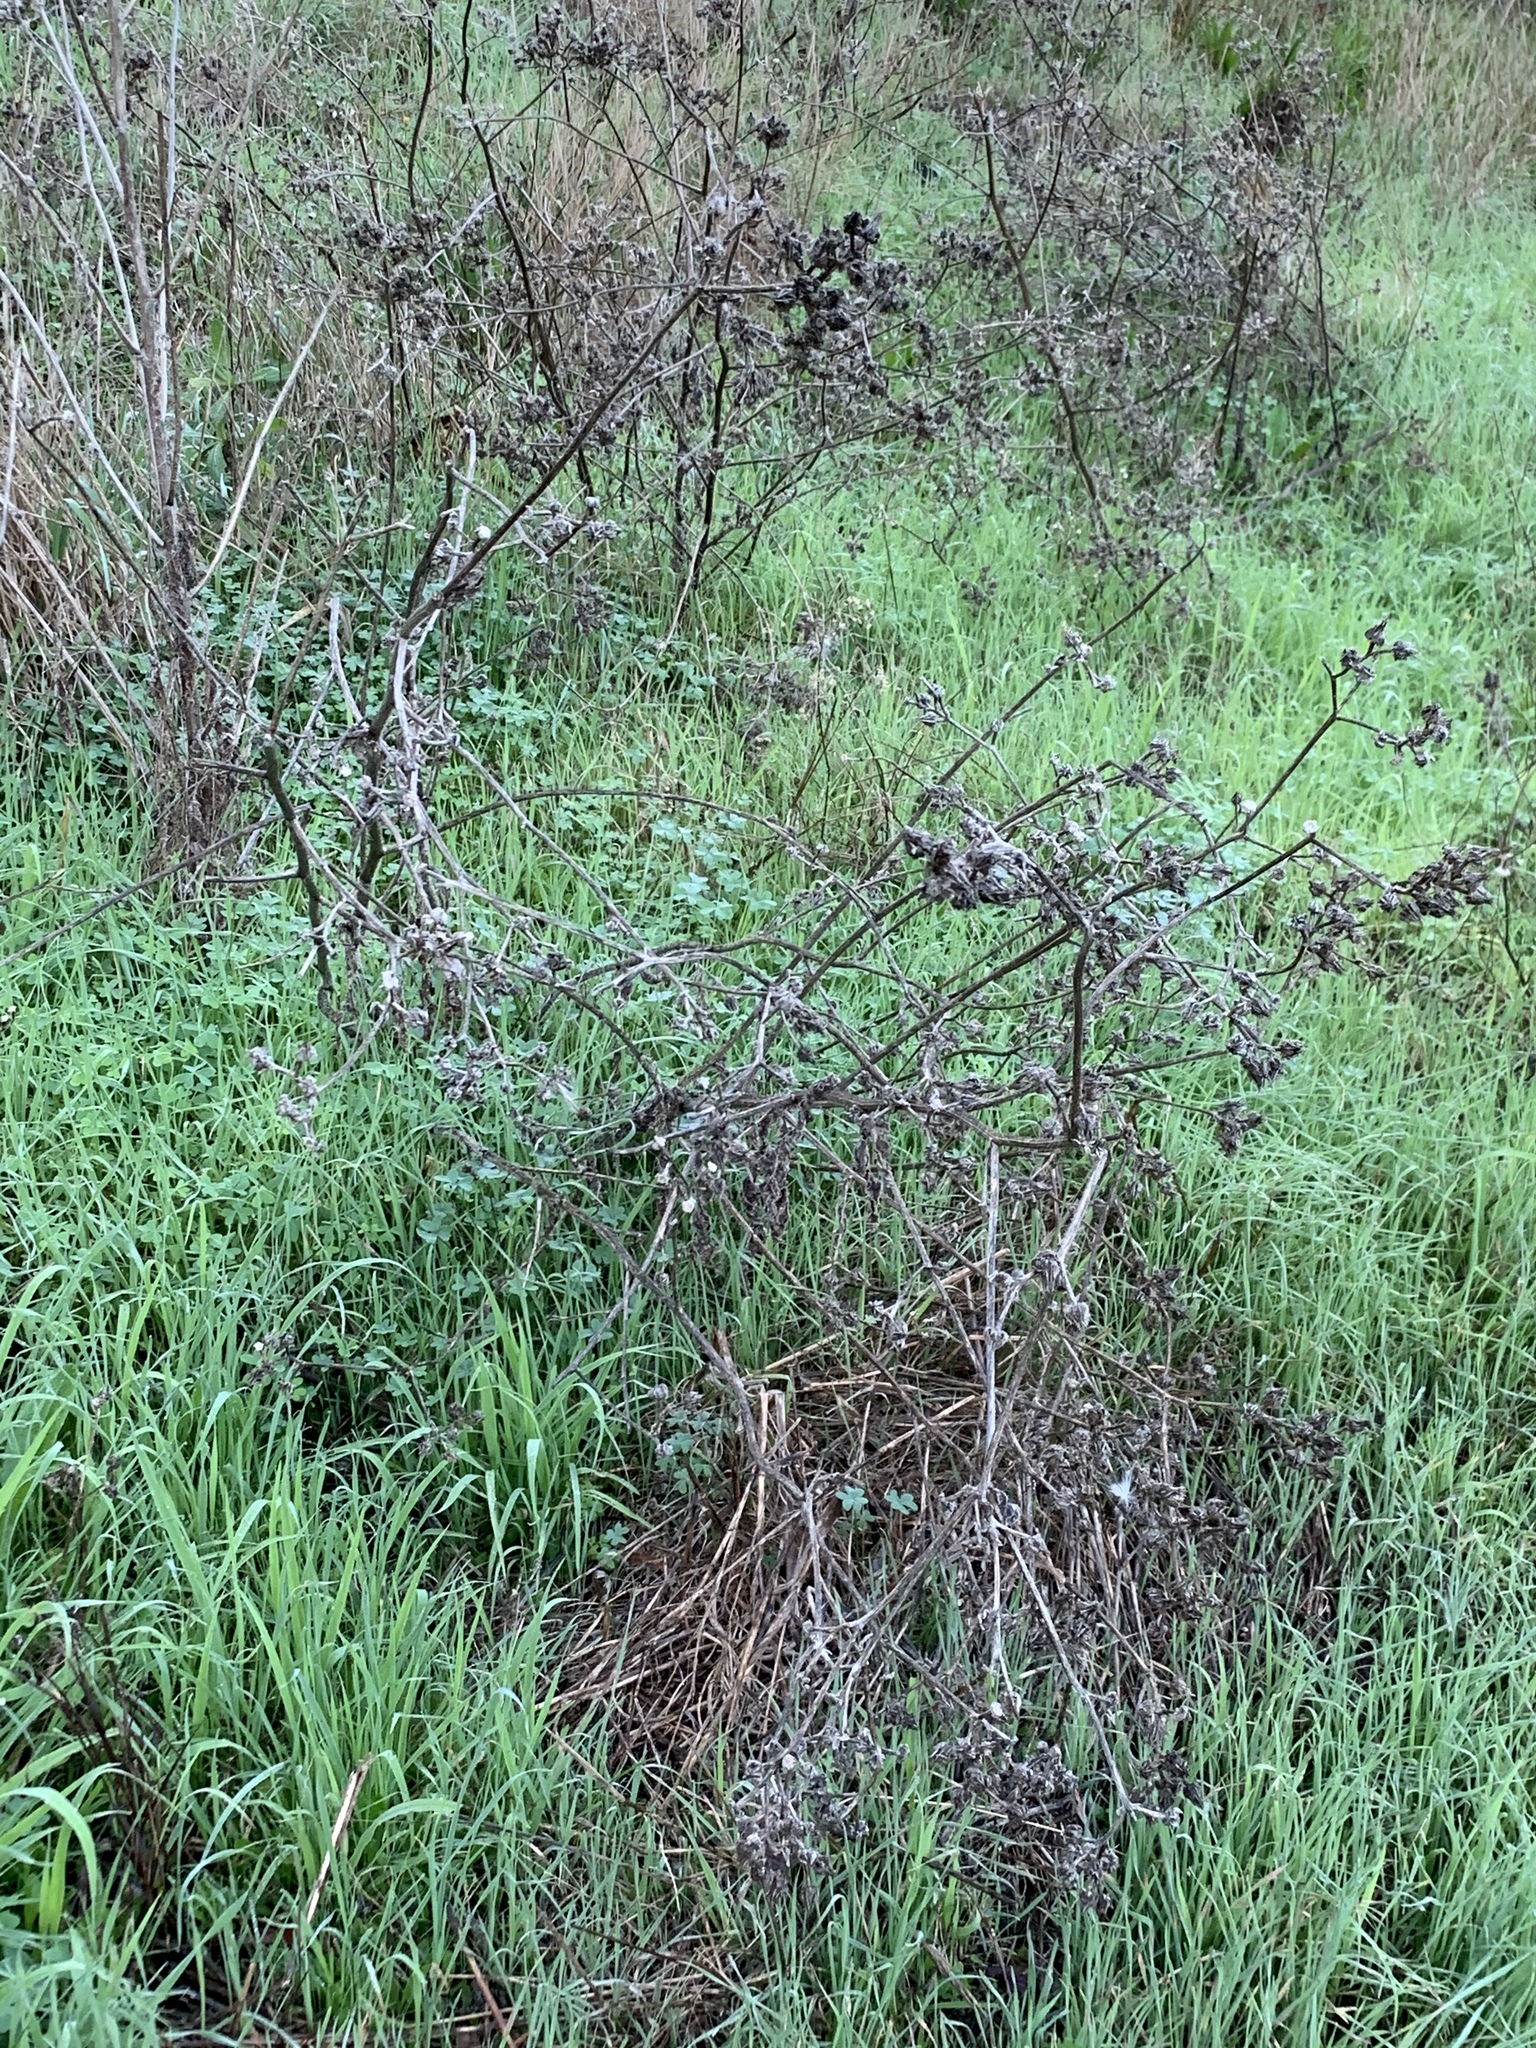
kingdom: Plantae
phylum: Tracheophyta
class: Magnoliopsida
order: Asterales
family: Asteraceae
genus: Helminthotheca
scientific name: Helminthotheca echioides
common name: Ox-tongue
